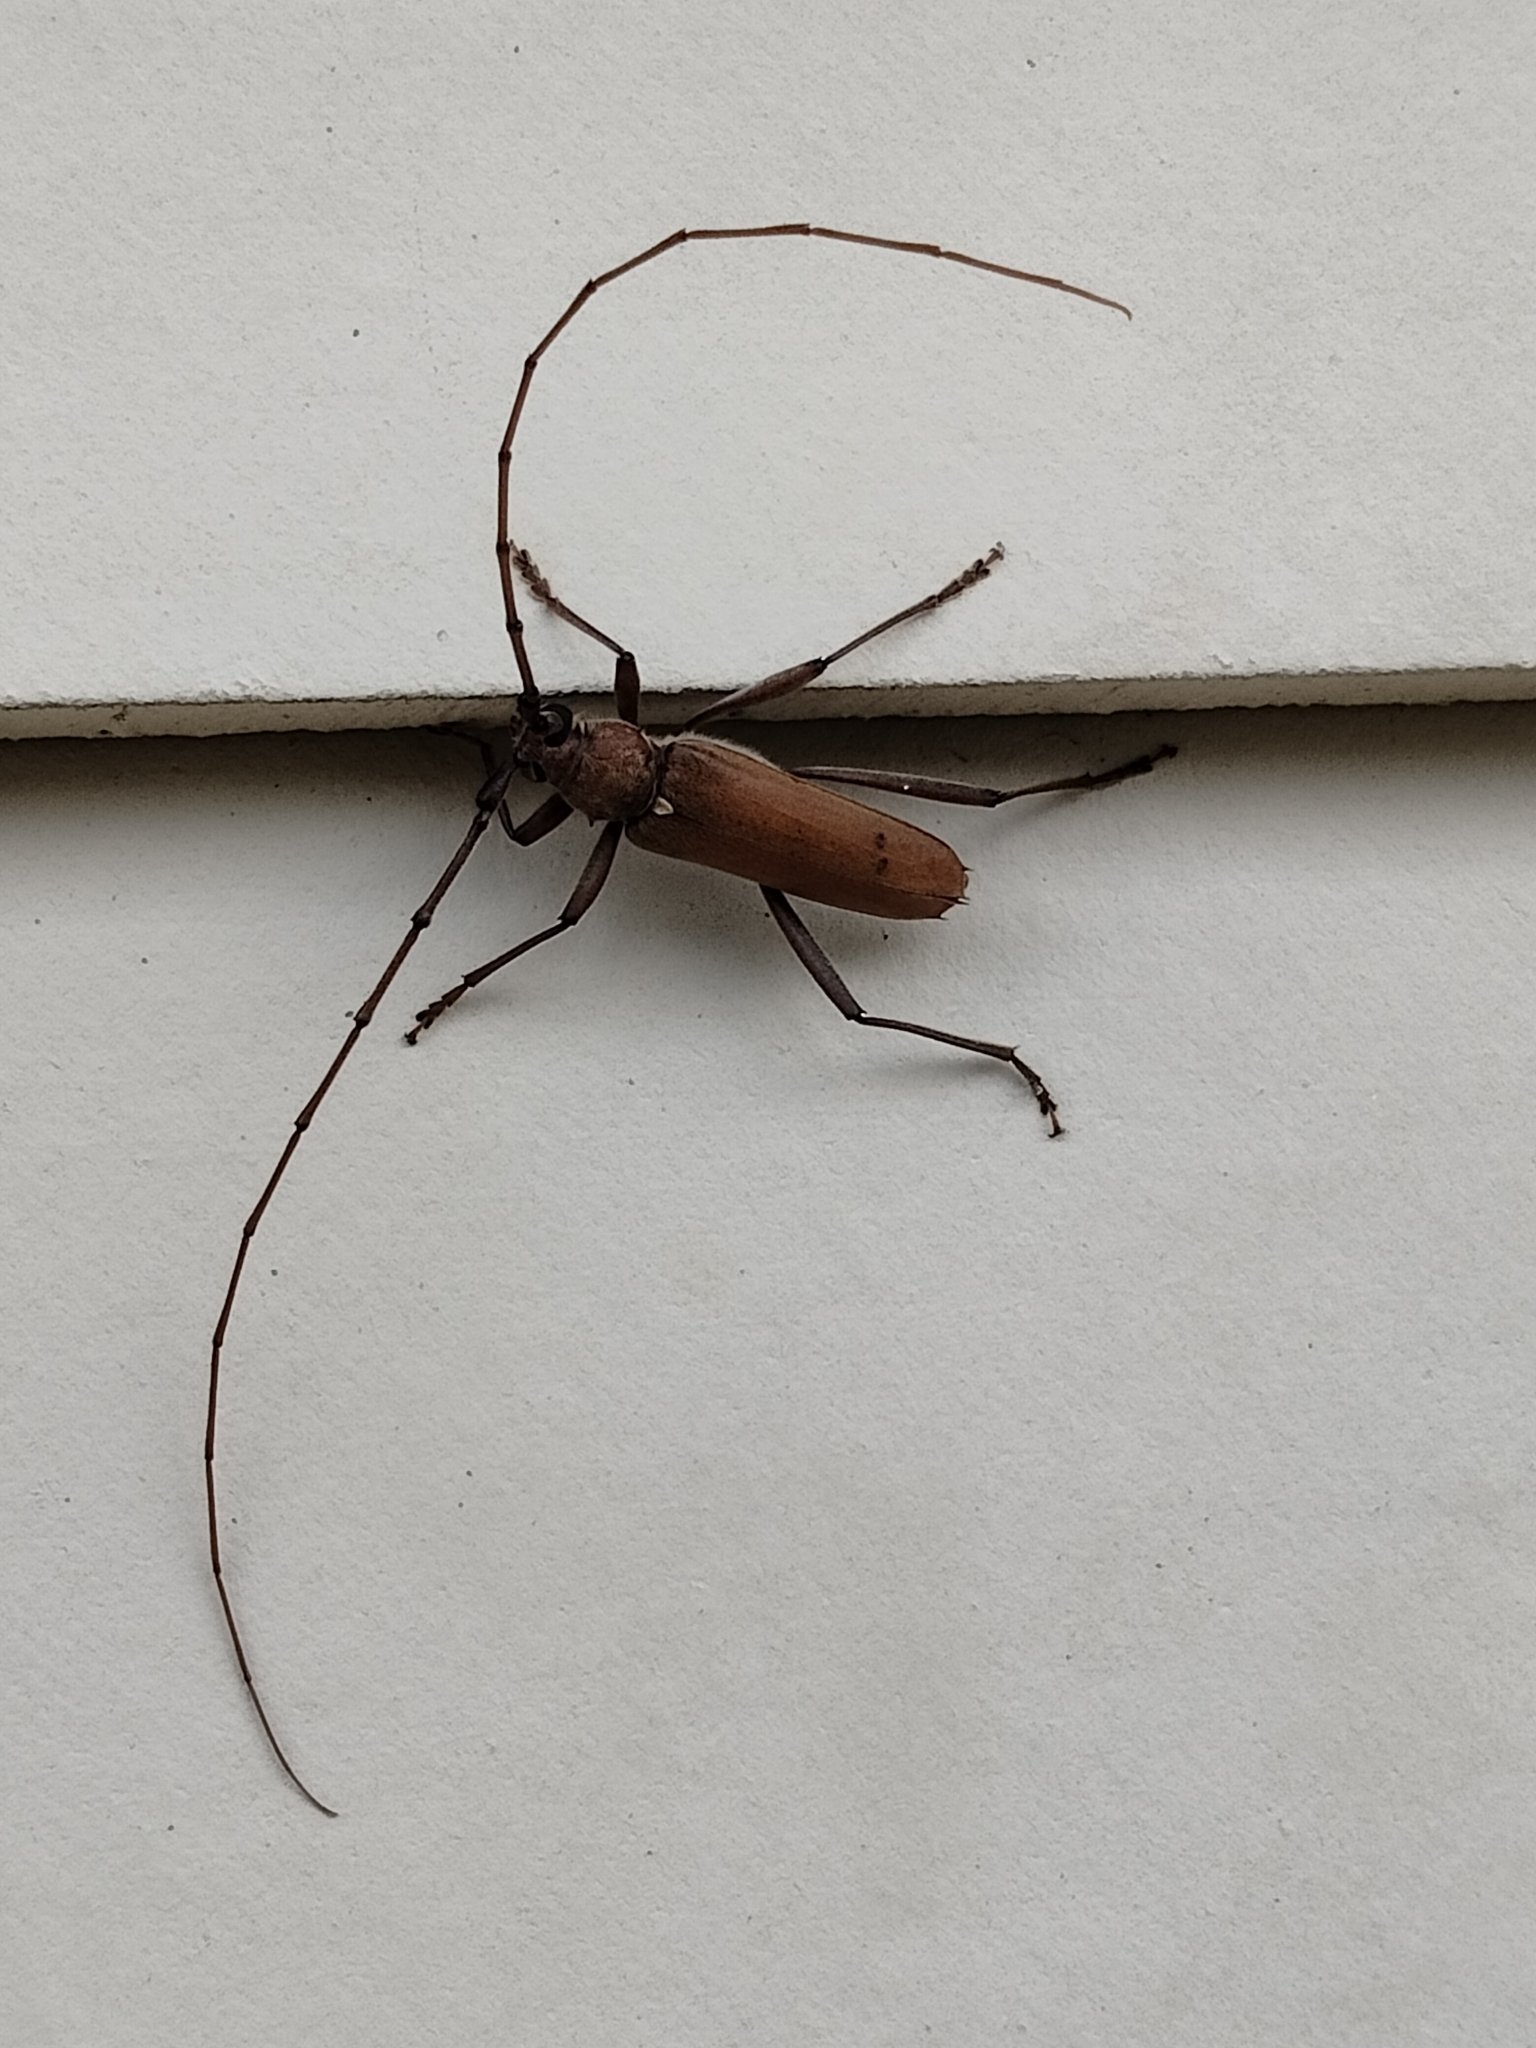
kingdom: Animalia
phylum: Arthropoda
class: Insecta
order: Coleoptera
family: Cerambycidae
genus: Knulliana
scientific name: Knulliana cincta
